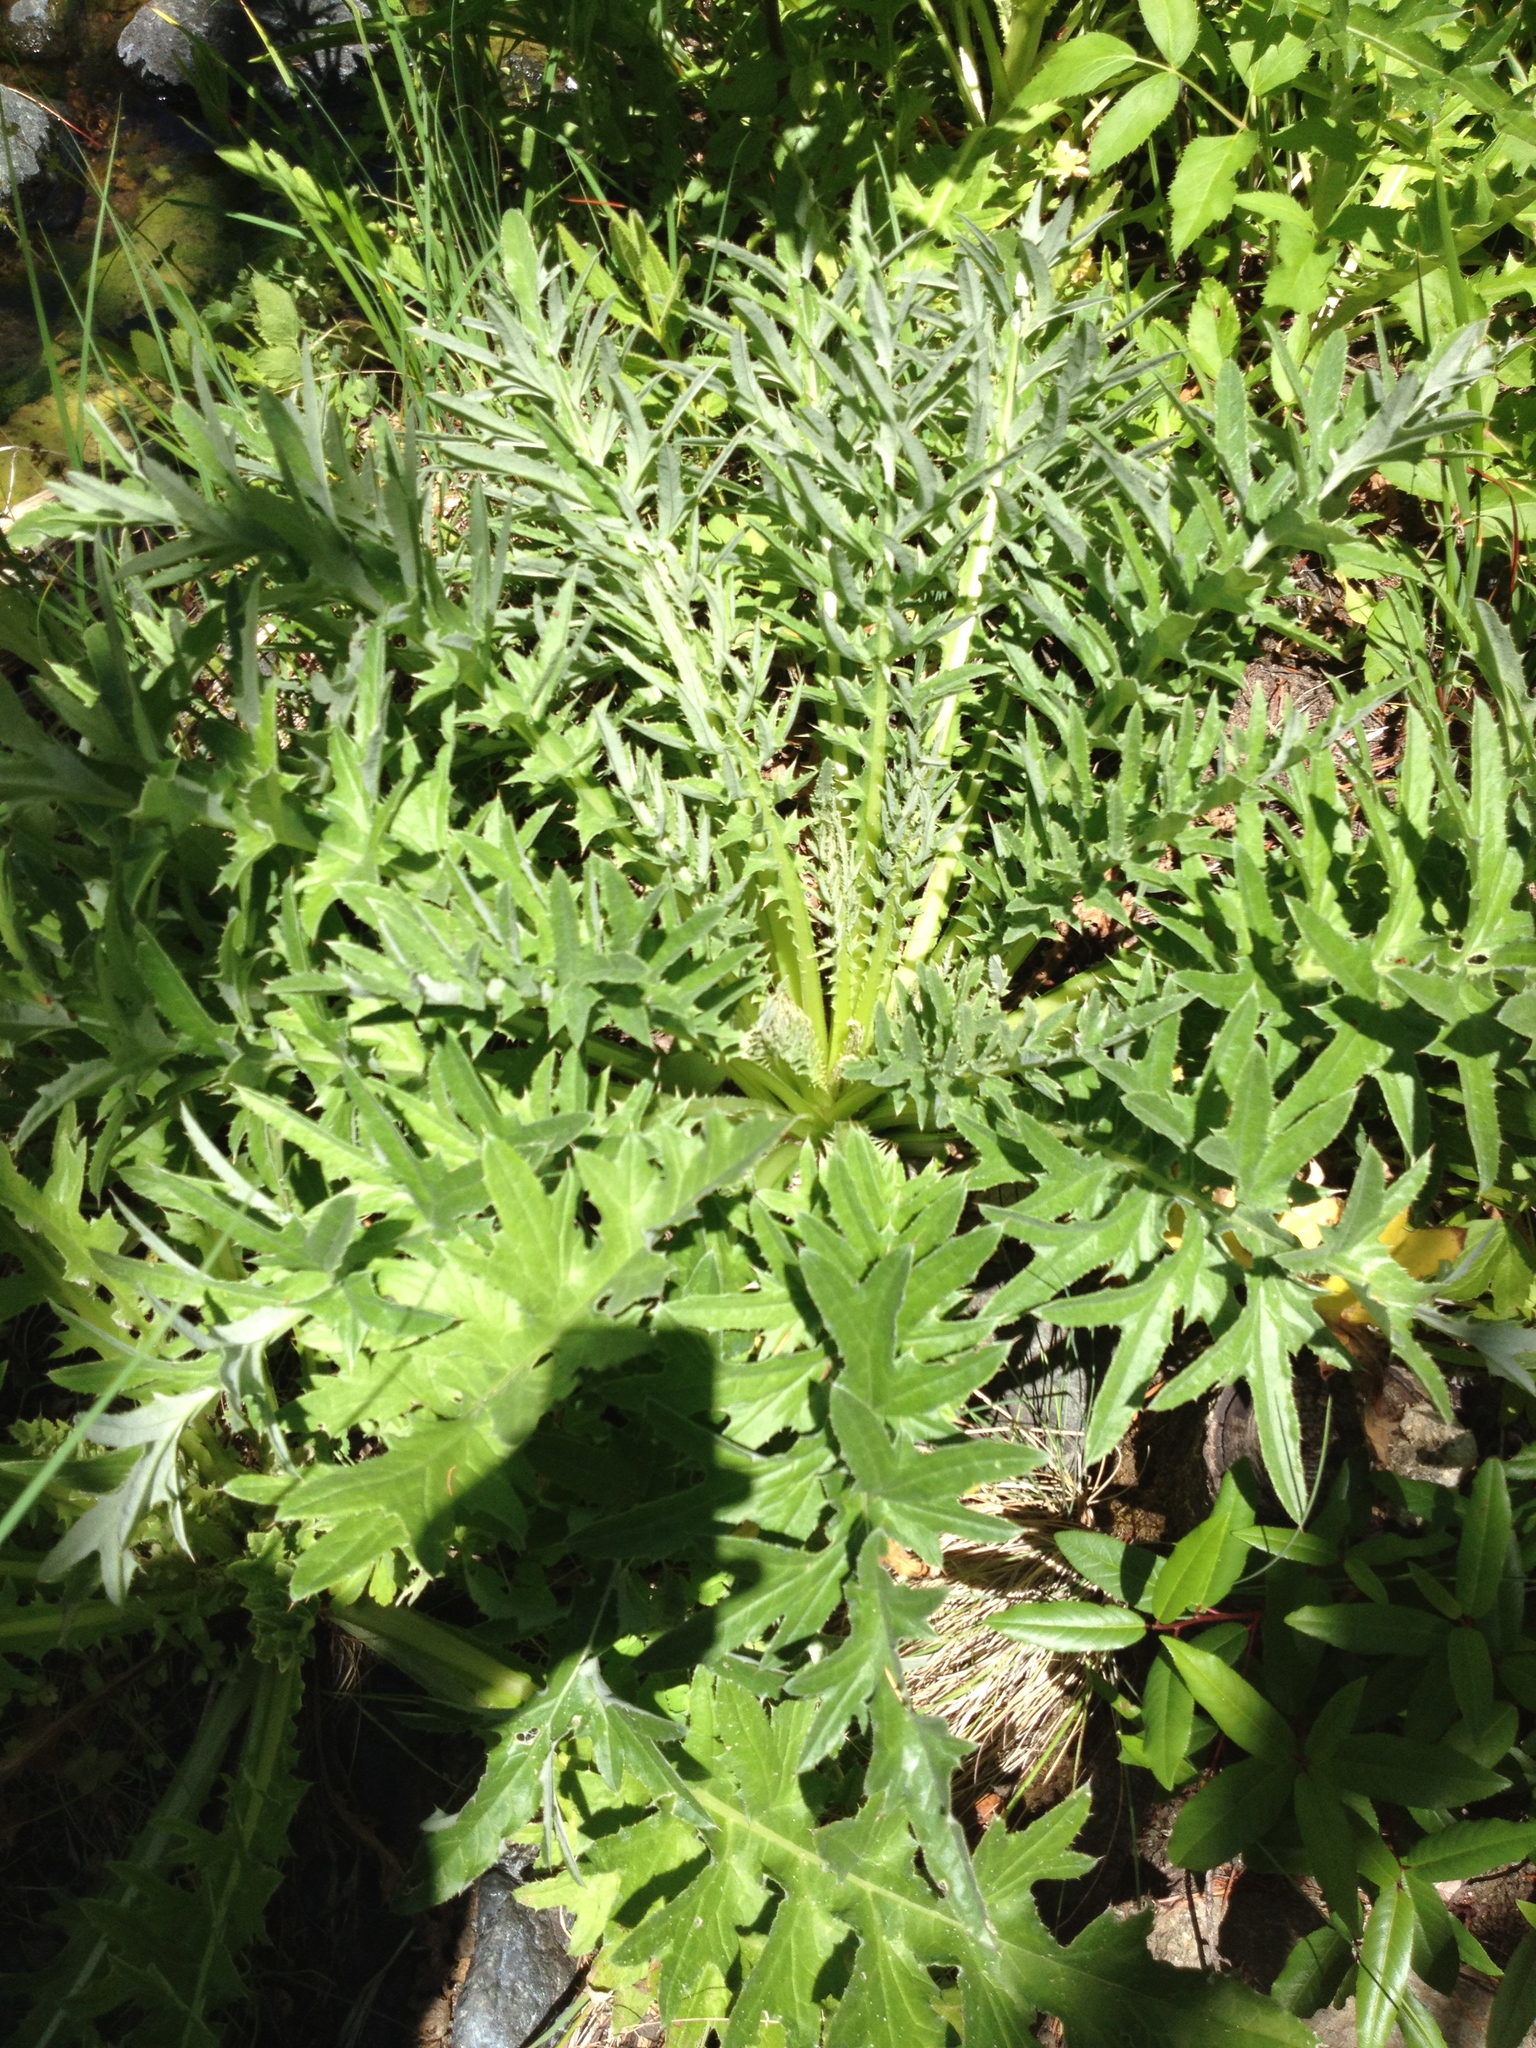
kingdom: Plantae
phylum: Tracheophyta
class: Magnoliopsida
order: Asterales
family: Asteraceae
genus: Cirsium
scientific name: Cirsium hydrophilum
